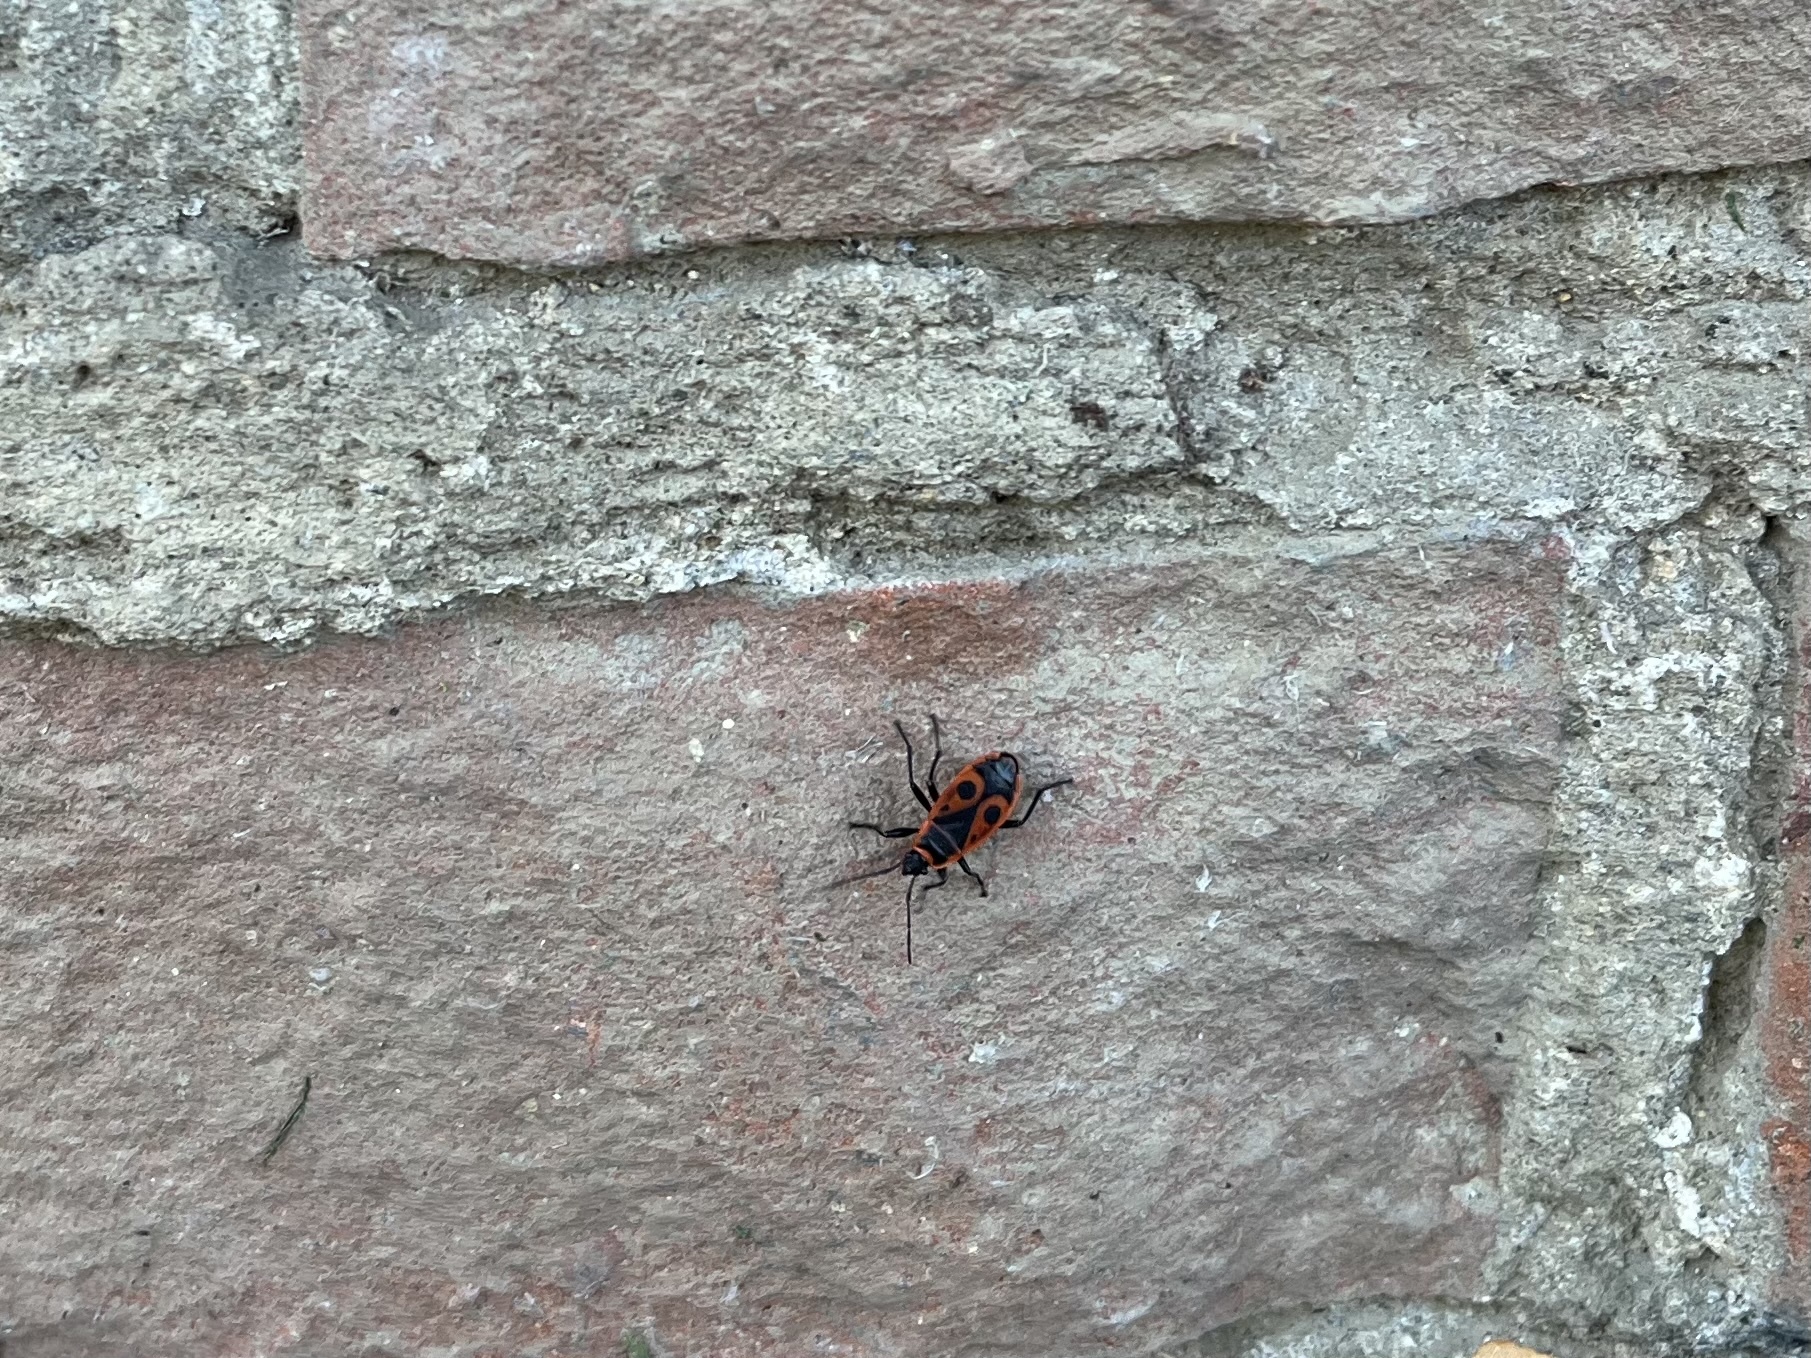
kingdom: Animalia
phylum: Arthropoda
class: Insecta
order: Hemiptera
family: Pyrrhocoridae
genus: Pyrrhocoris
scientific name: Pyrrhocoris apterus
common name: Firebug
